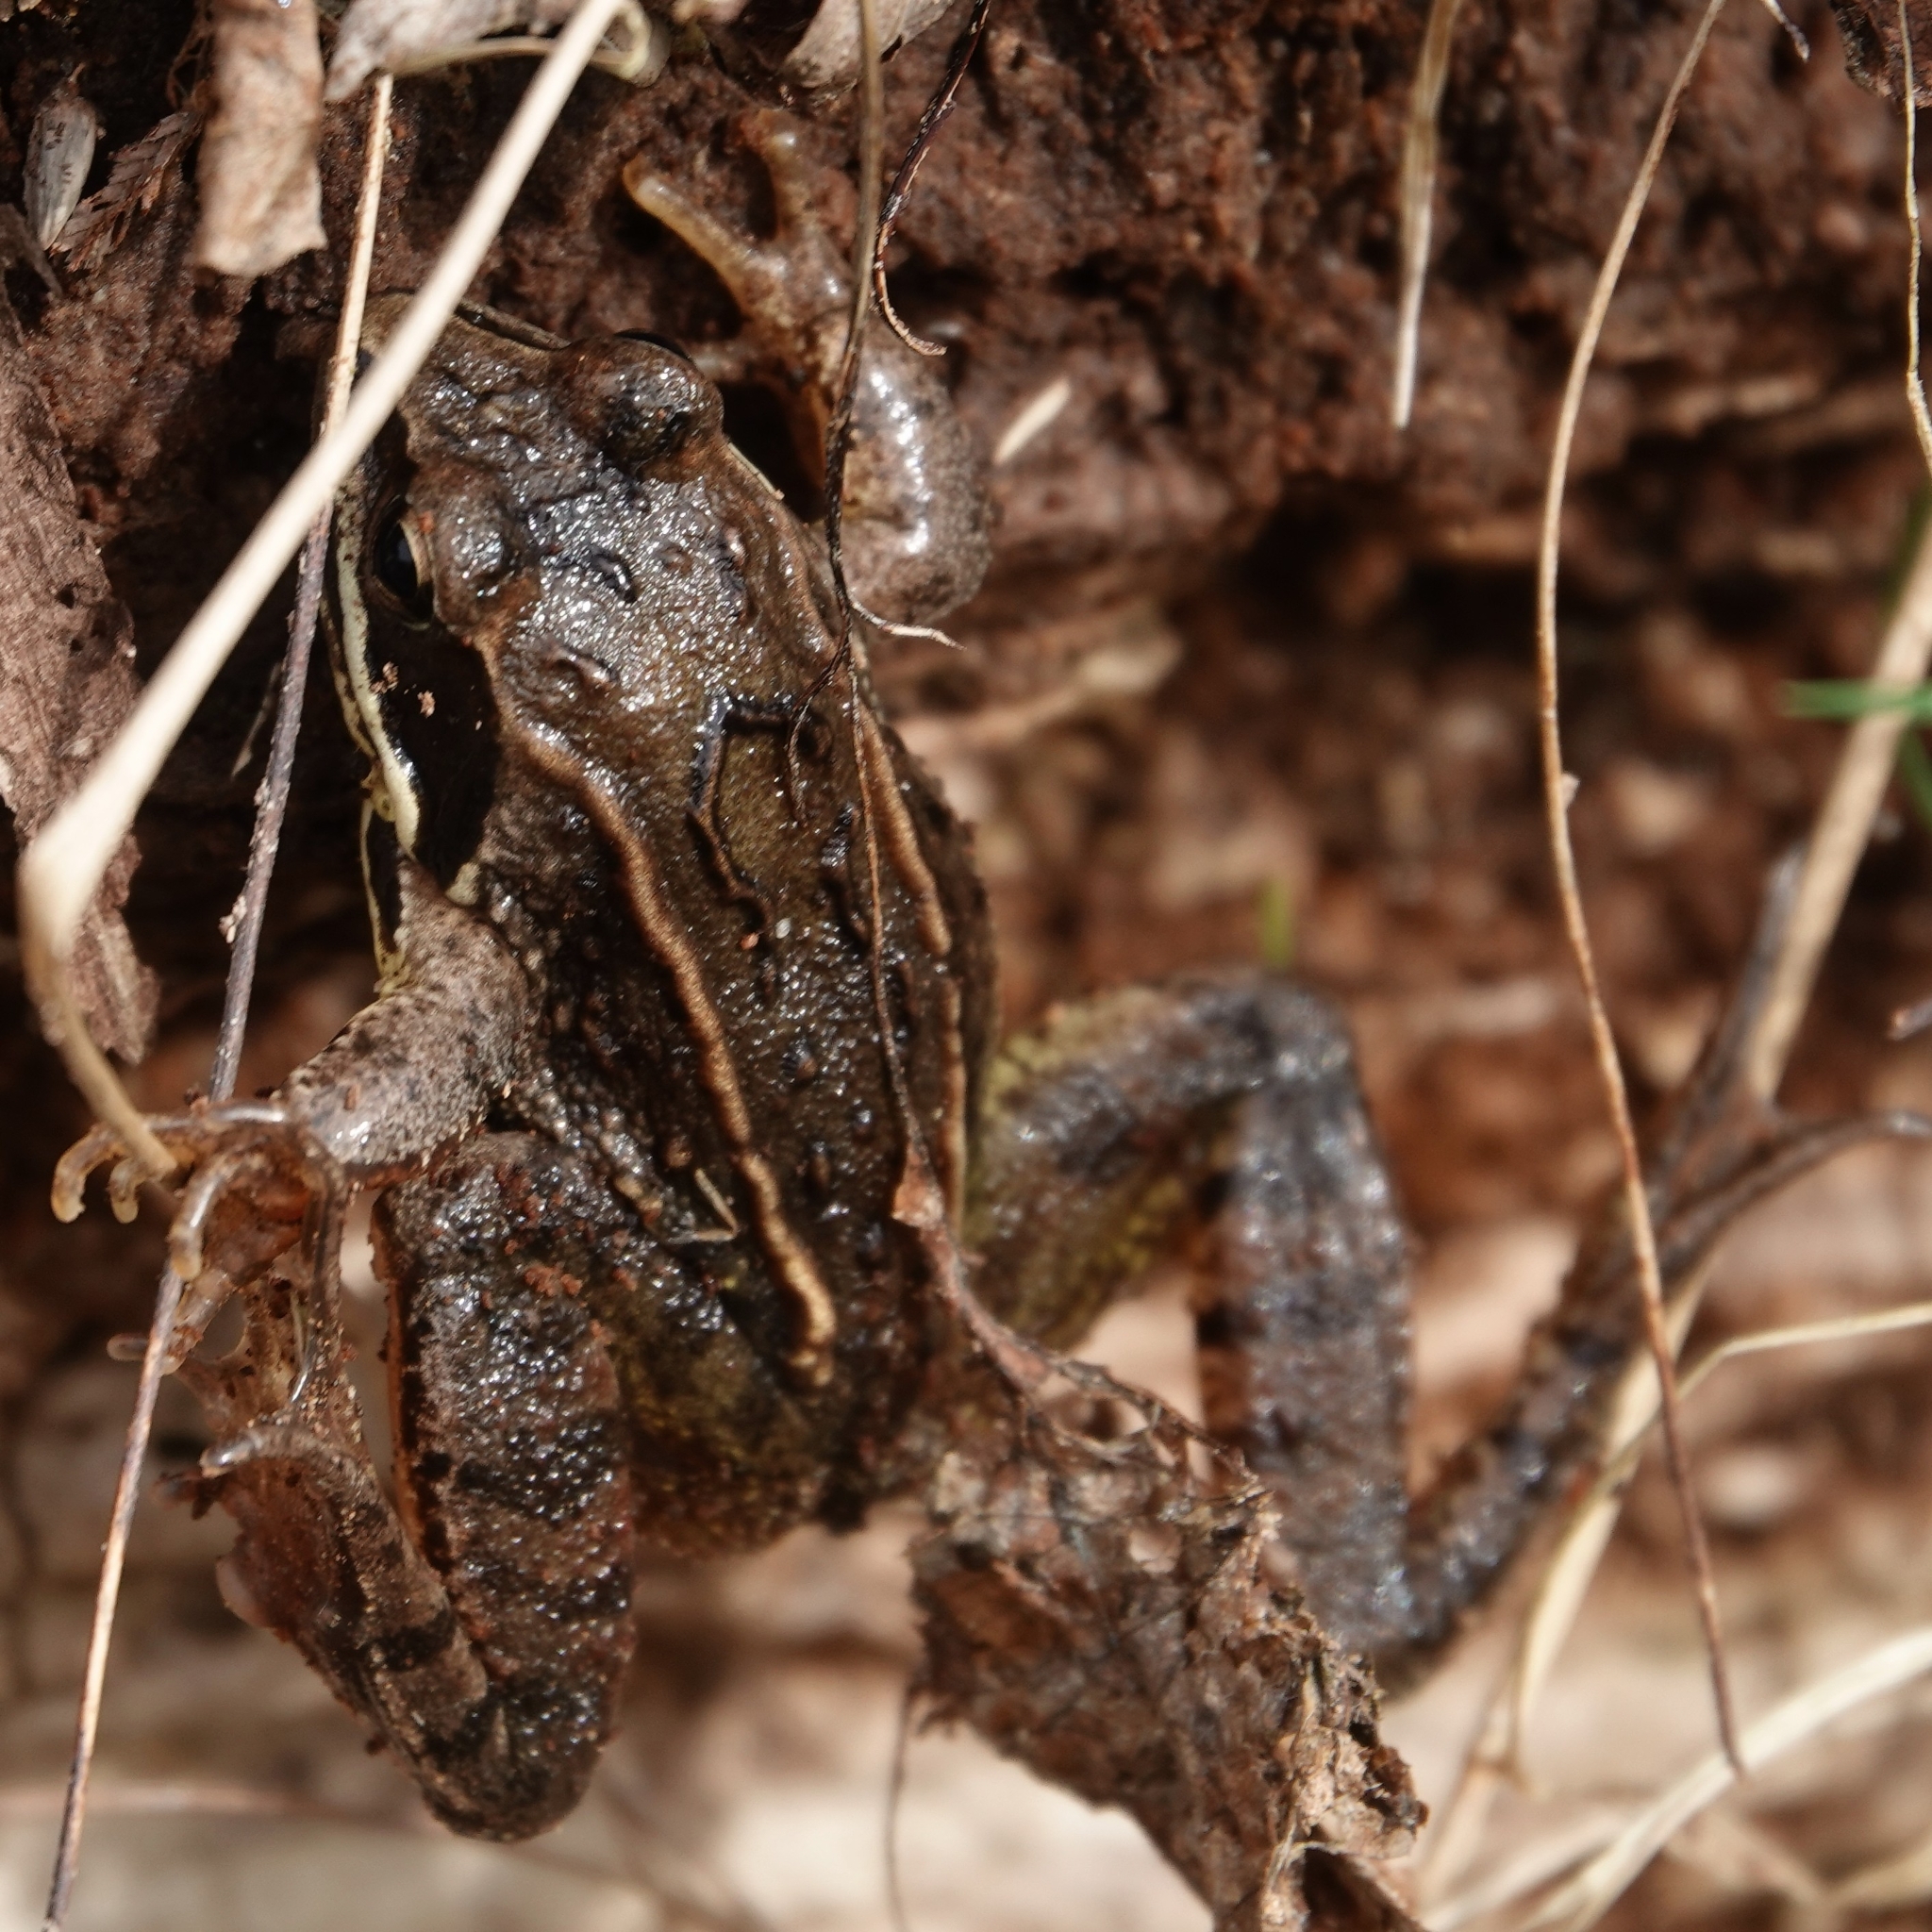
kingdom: Animalia
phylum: Chordata
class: Amphibia
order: Anura
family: Ranidae
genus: Rana
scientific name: Rana arvalis
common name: Moor frog
